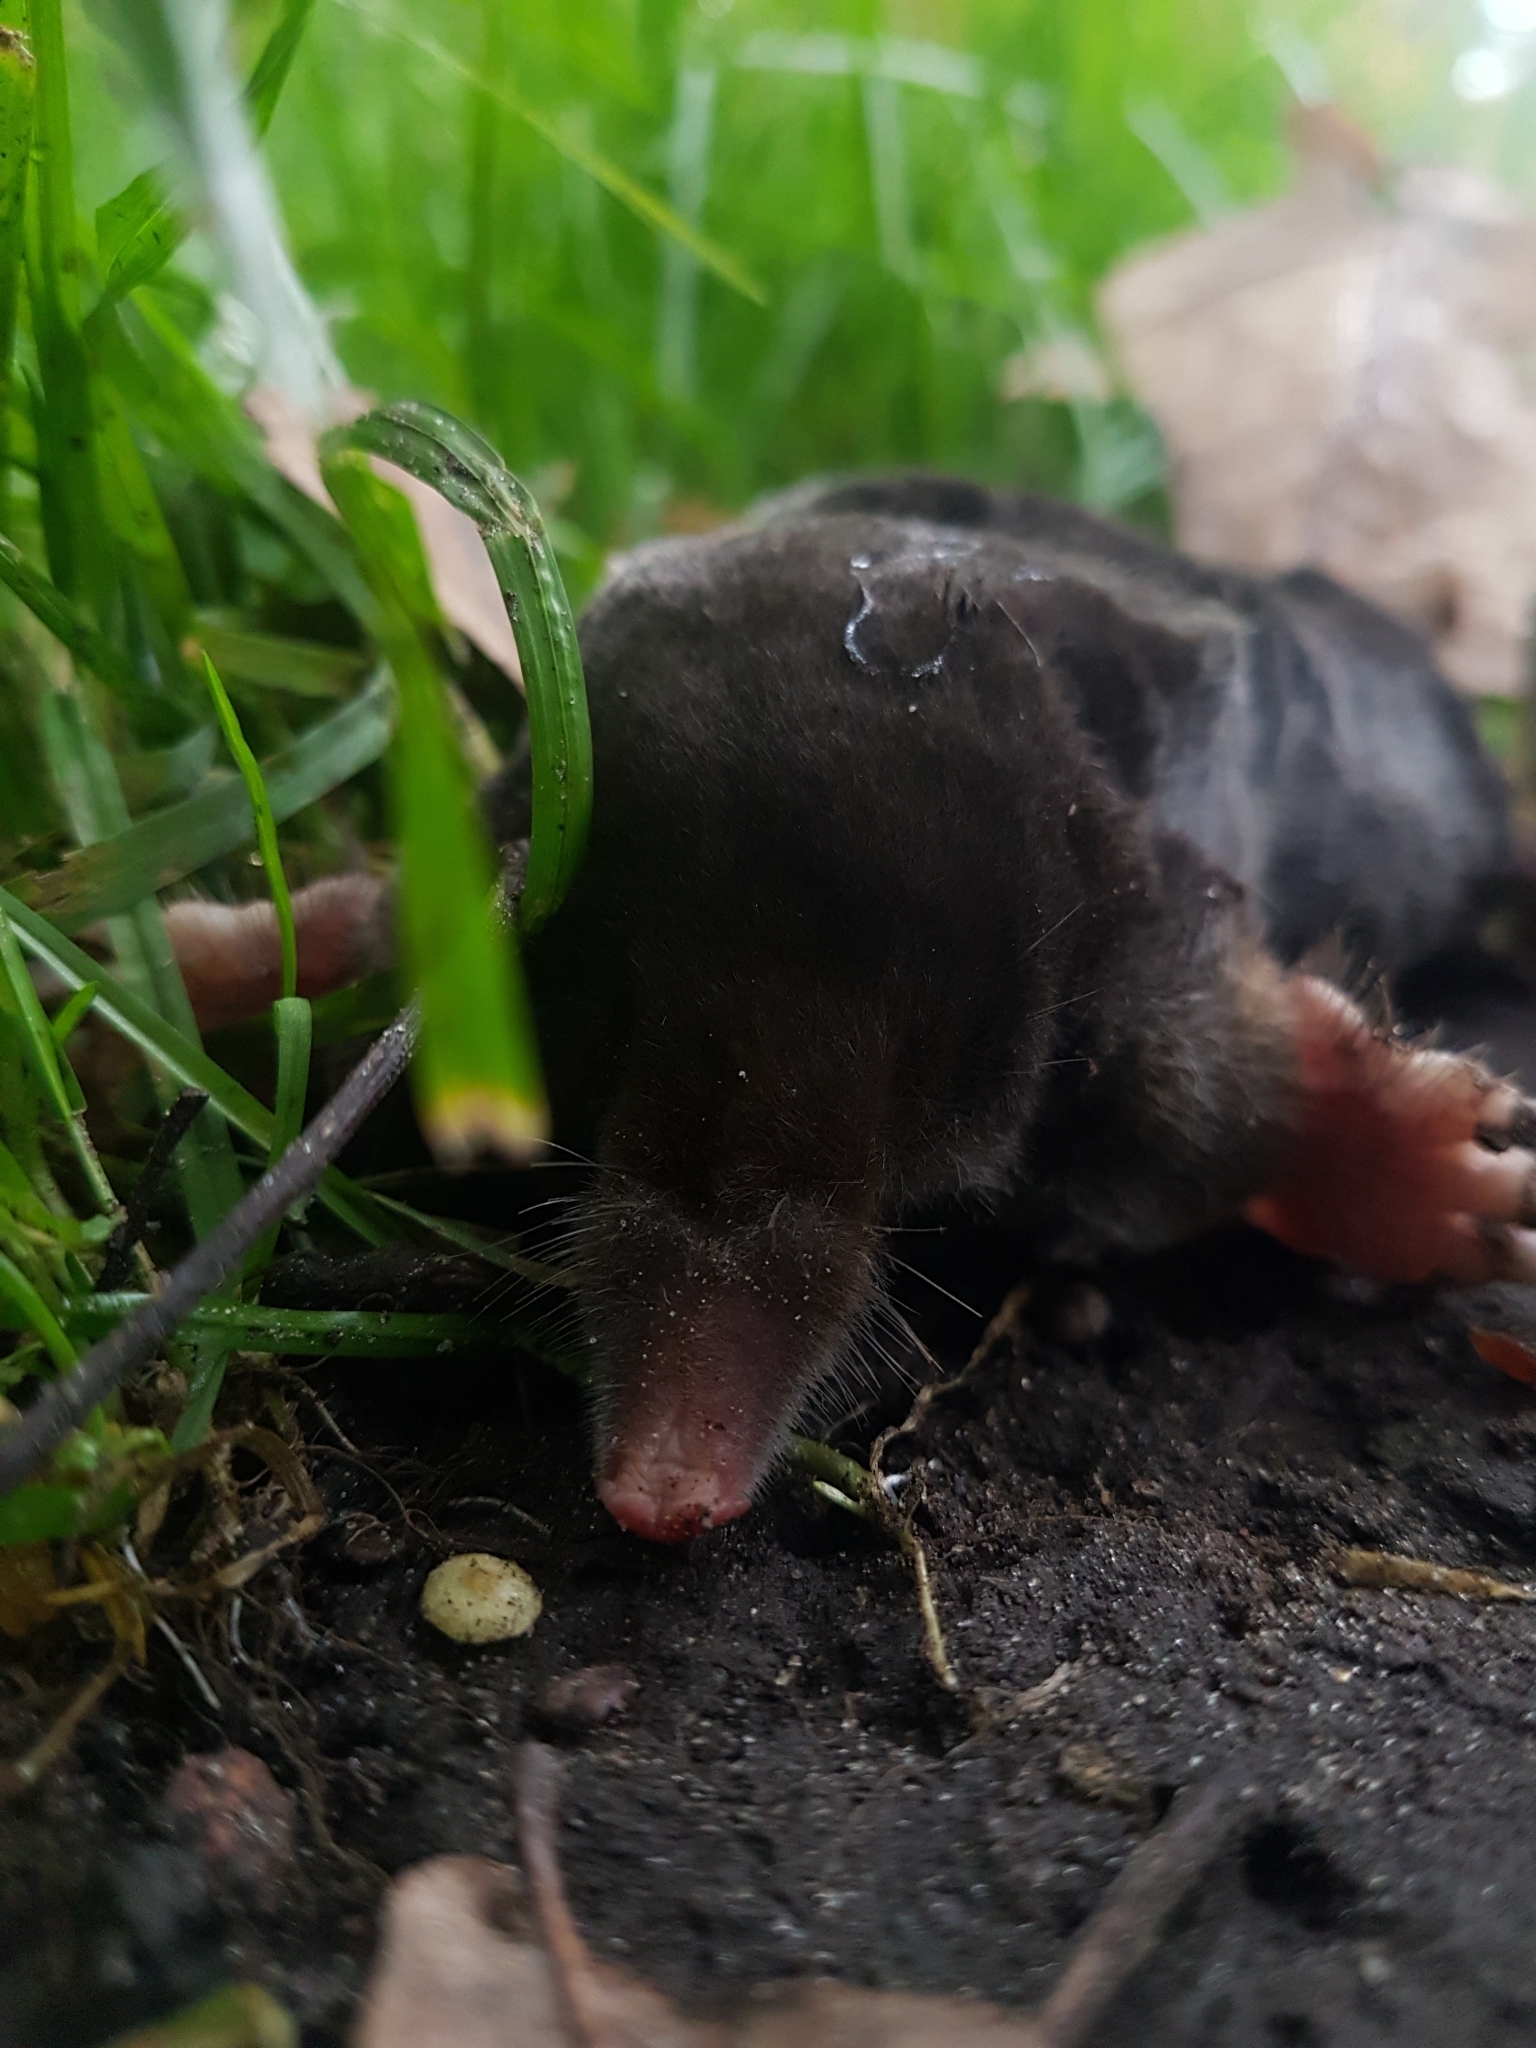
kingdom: Animalia
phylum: Chordata
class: Mammalia
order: Soricomorpha
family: Talpidae
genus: Talpa
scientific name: Talpa europaea
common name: European mole
